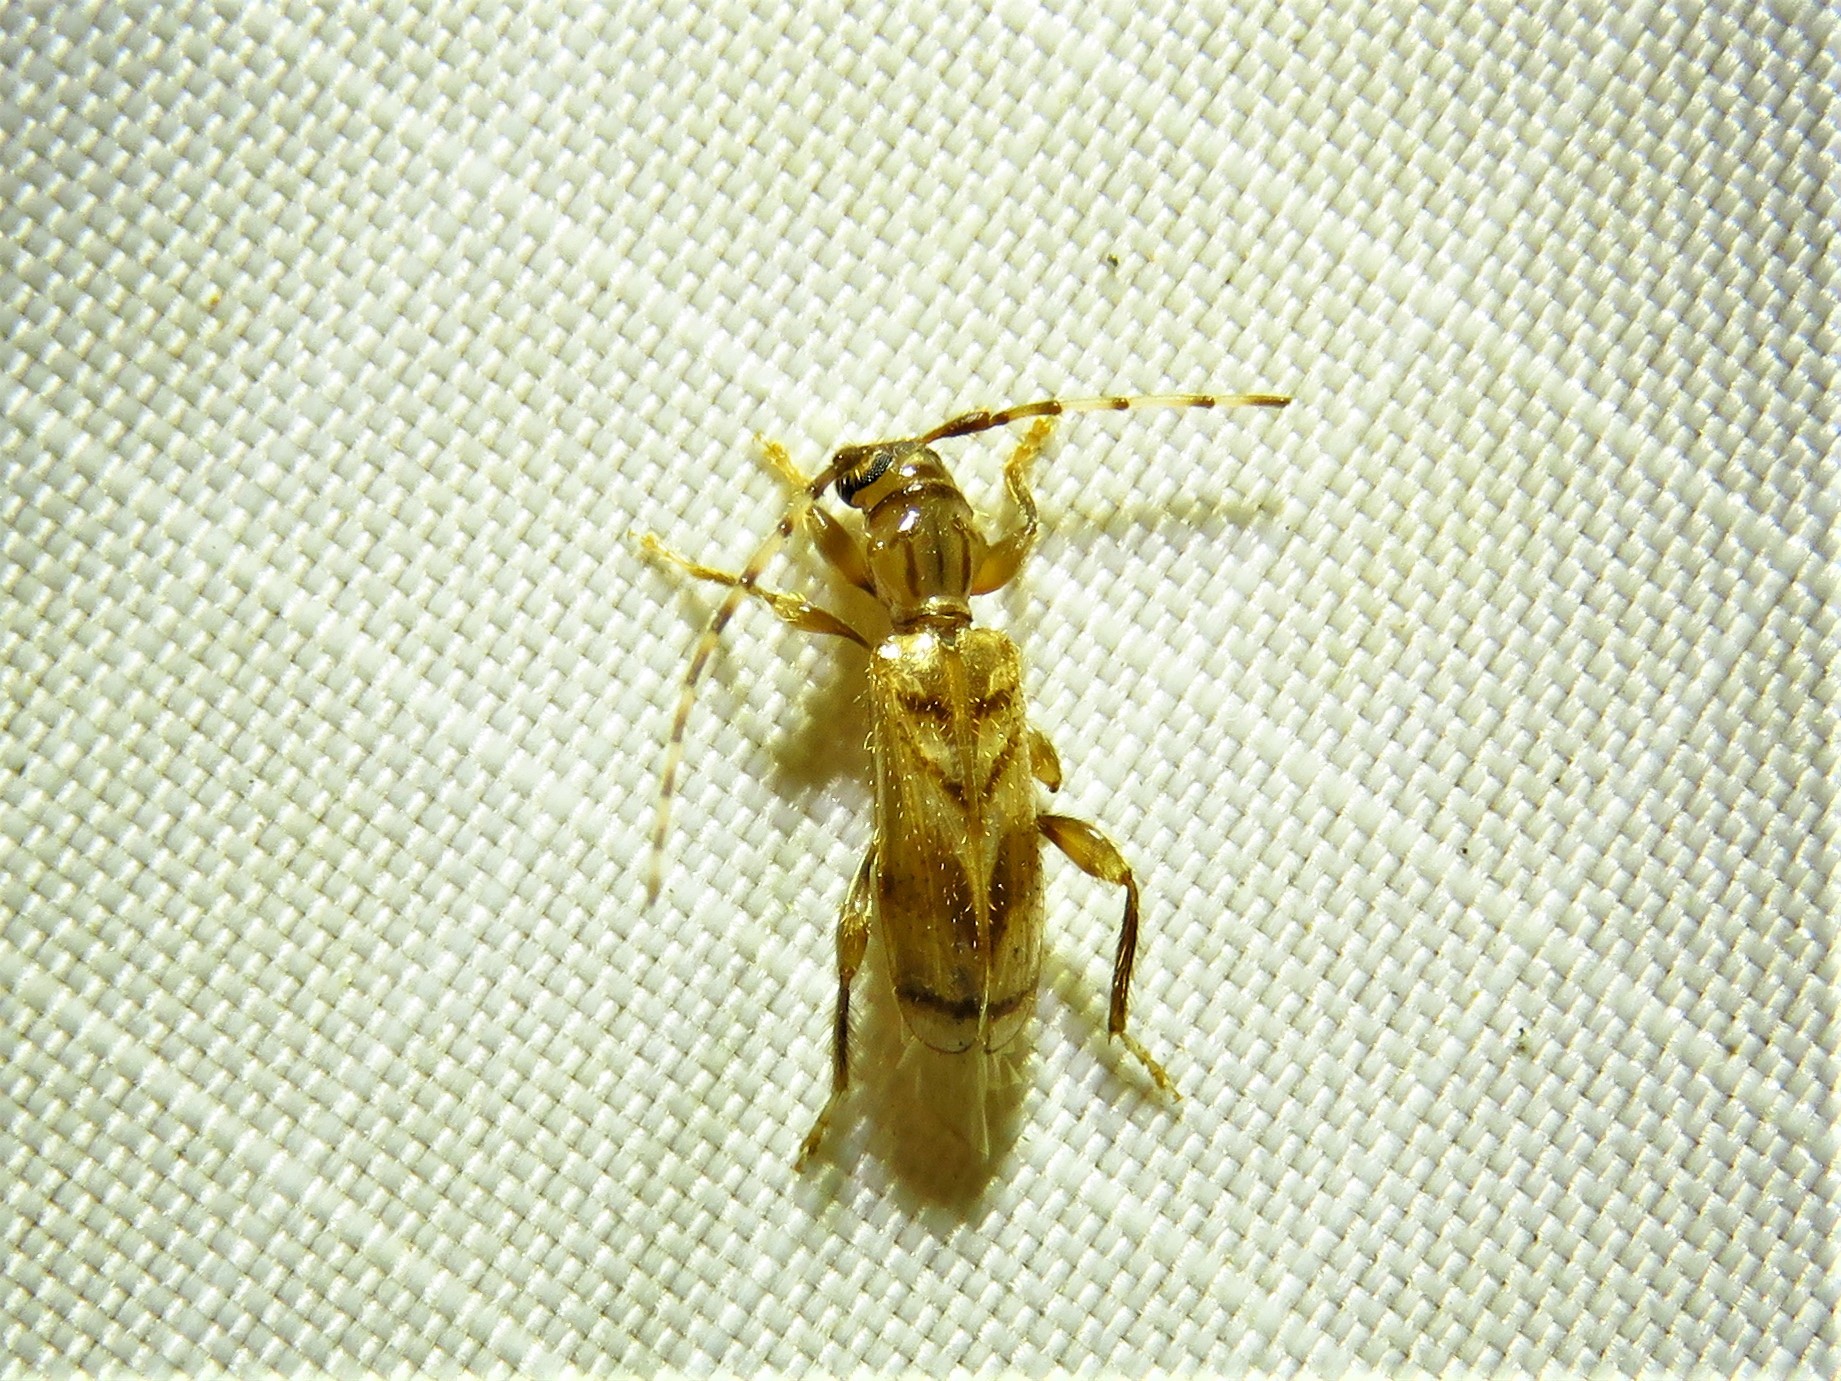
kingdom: Animalia
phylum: Arthropoda
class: Insecta
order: Coleoptera
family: Cerambycidae
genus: Obrium
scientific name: Obrium maculatum
